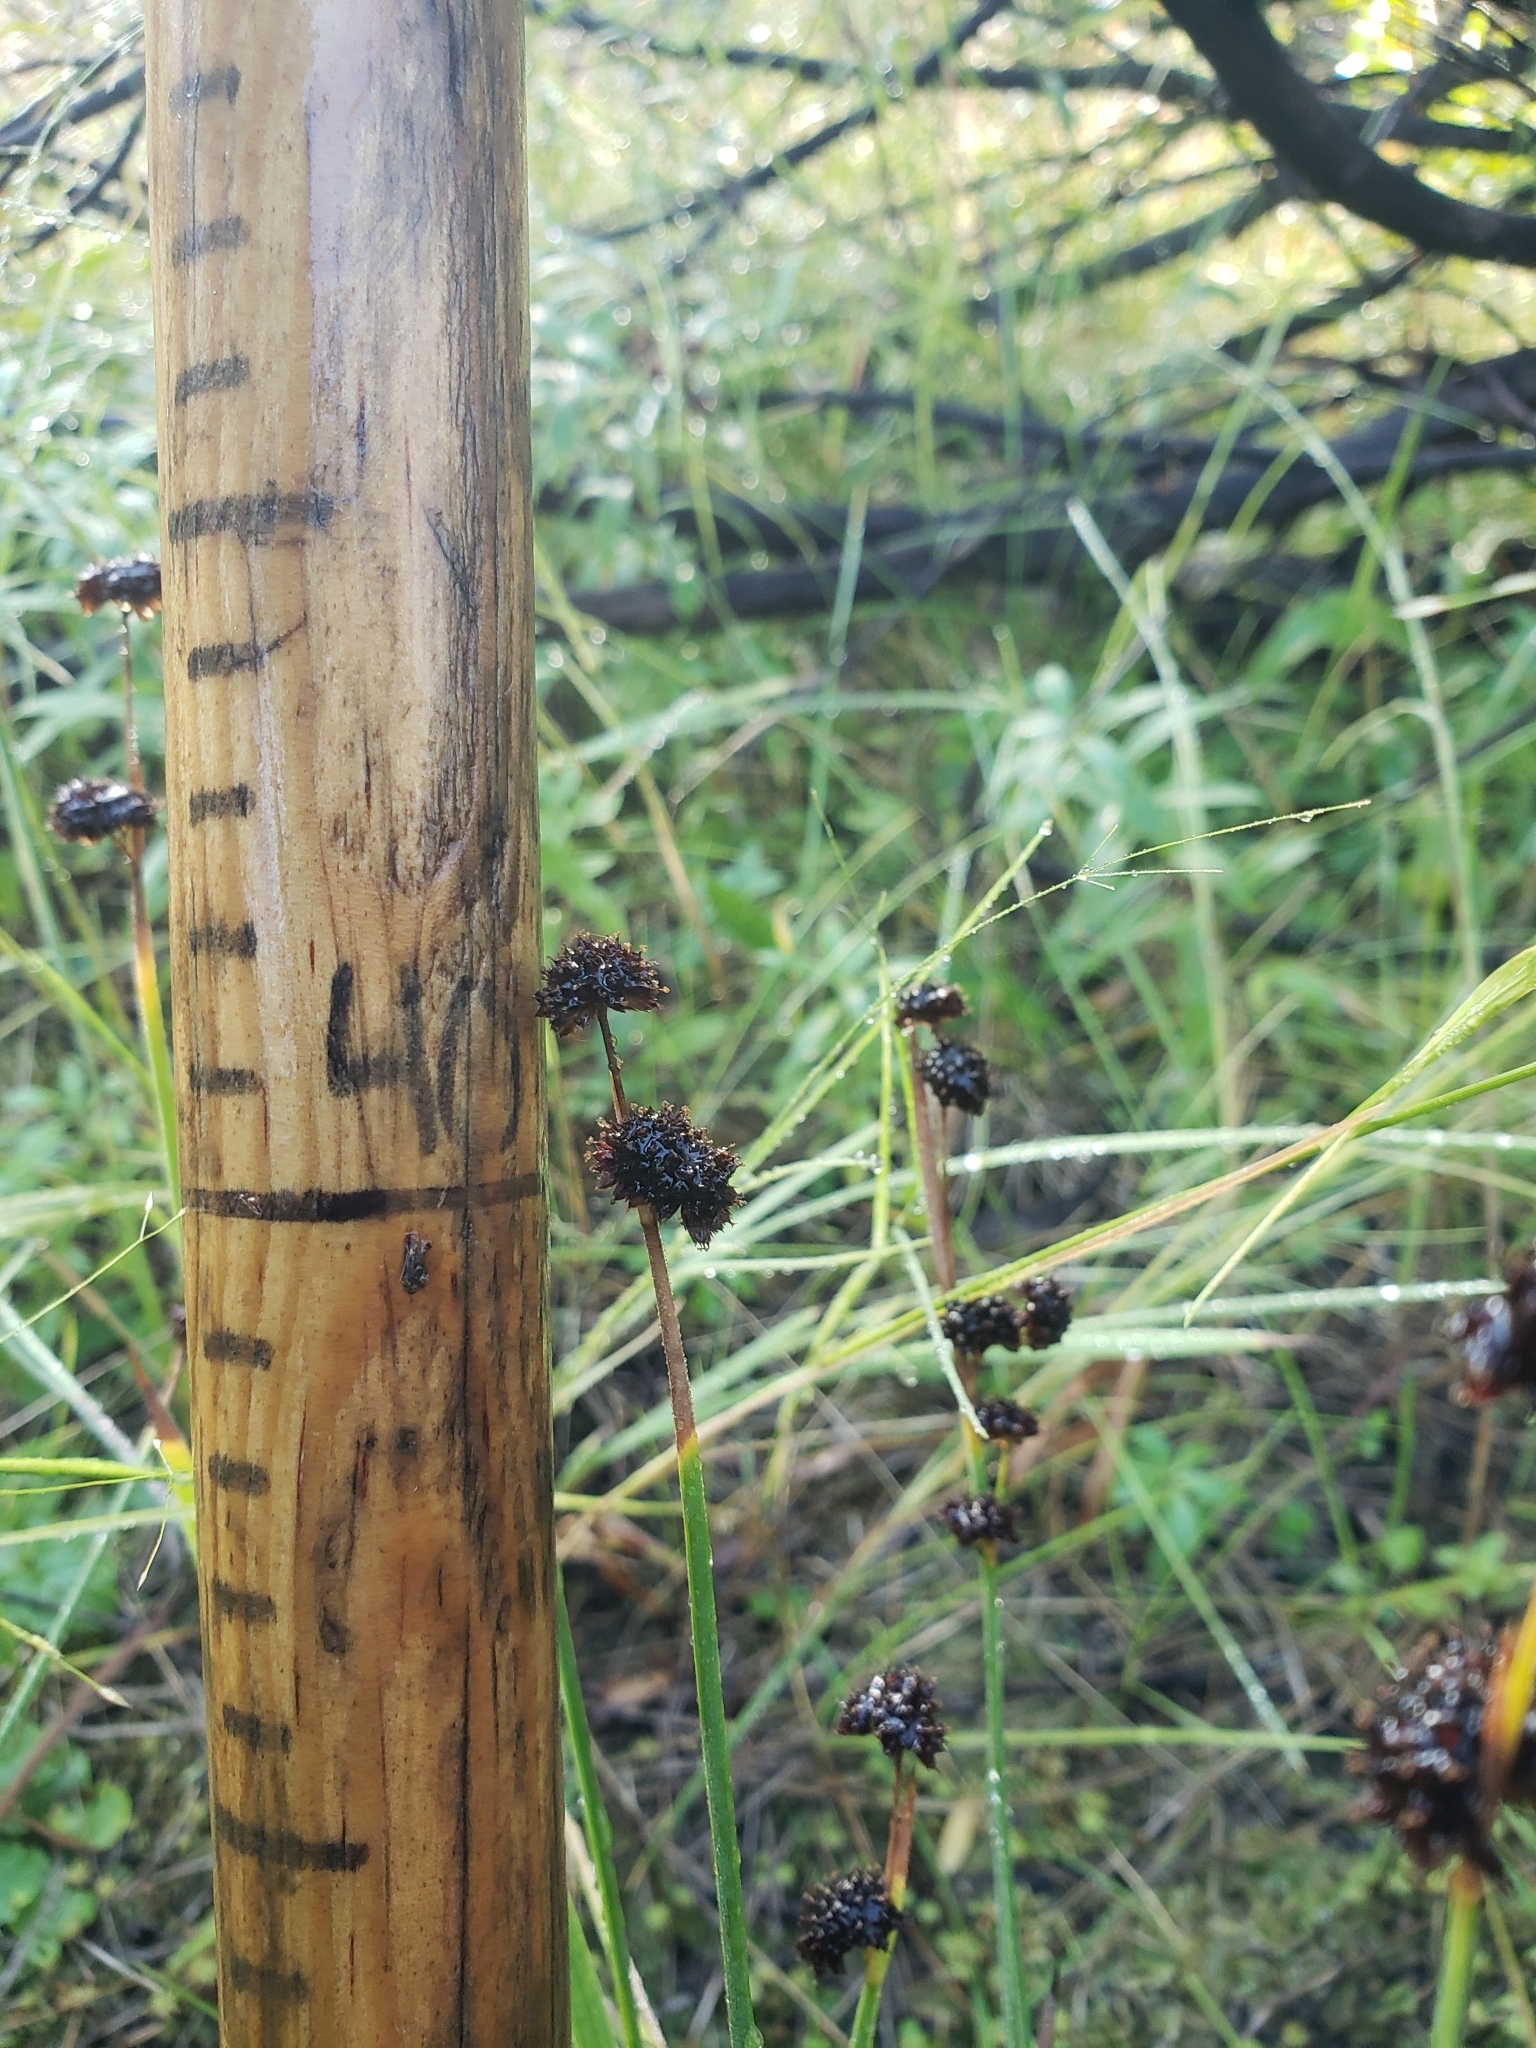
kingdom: Plantae
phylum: Tracheophyta
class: Liliopsida
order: Poales
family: Juncaceae
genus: Juncus
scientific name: Juncus ensifolius
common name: Sword-leaved rush
